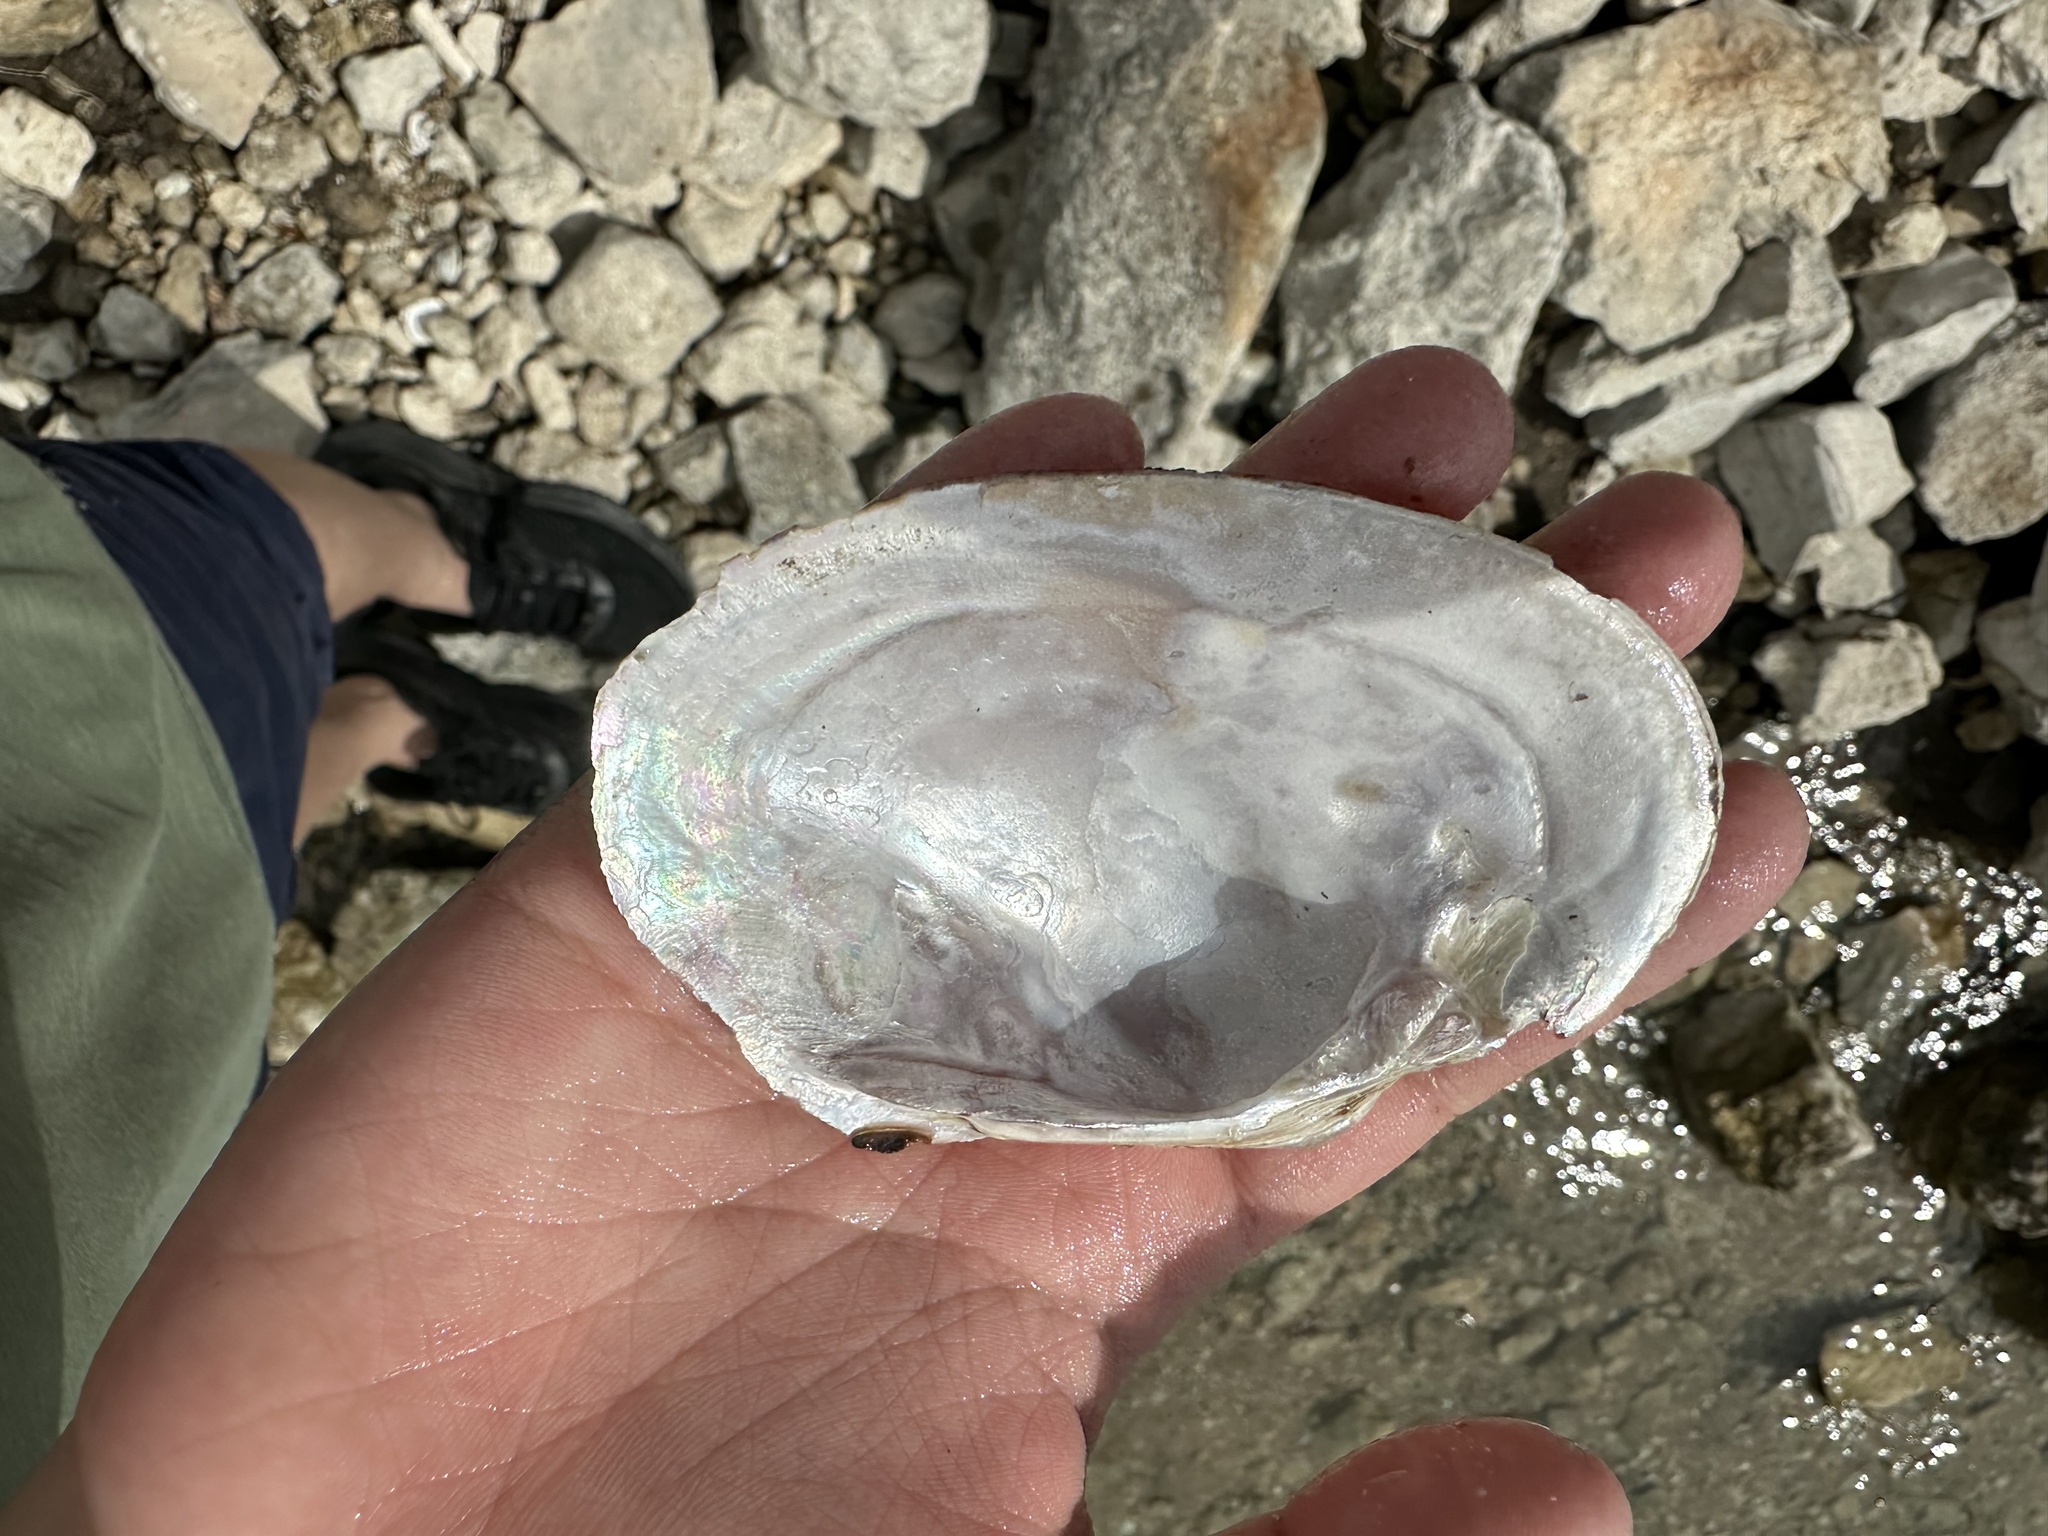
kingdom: Animalia
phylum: Mollusca
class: Bivalvia
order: Unionida
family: Unionidae
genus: Cyrtonaias
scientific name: Cyrtonaias tampicoensis
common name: Tampico pearlymussel
